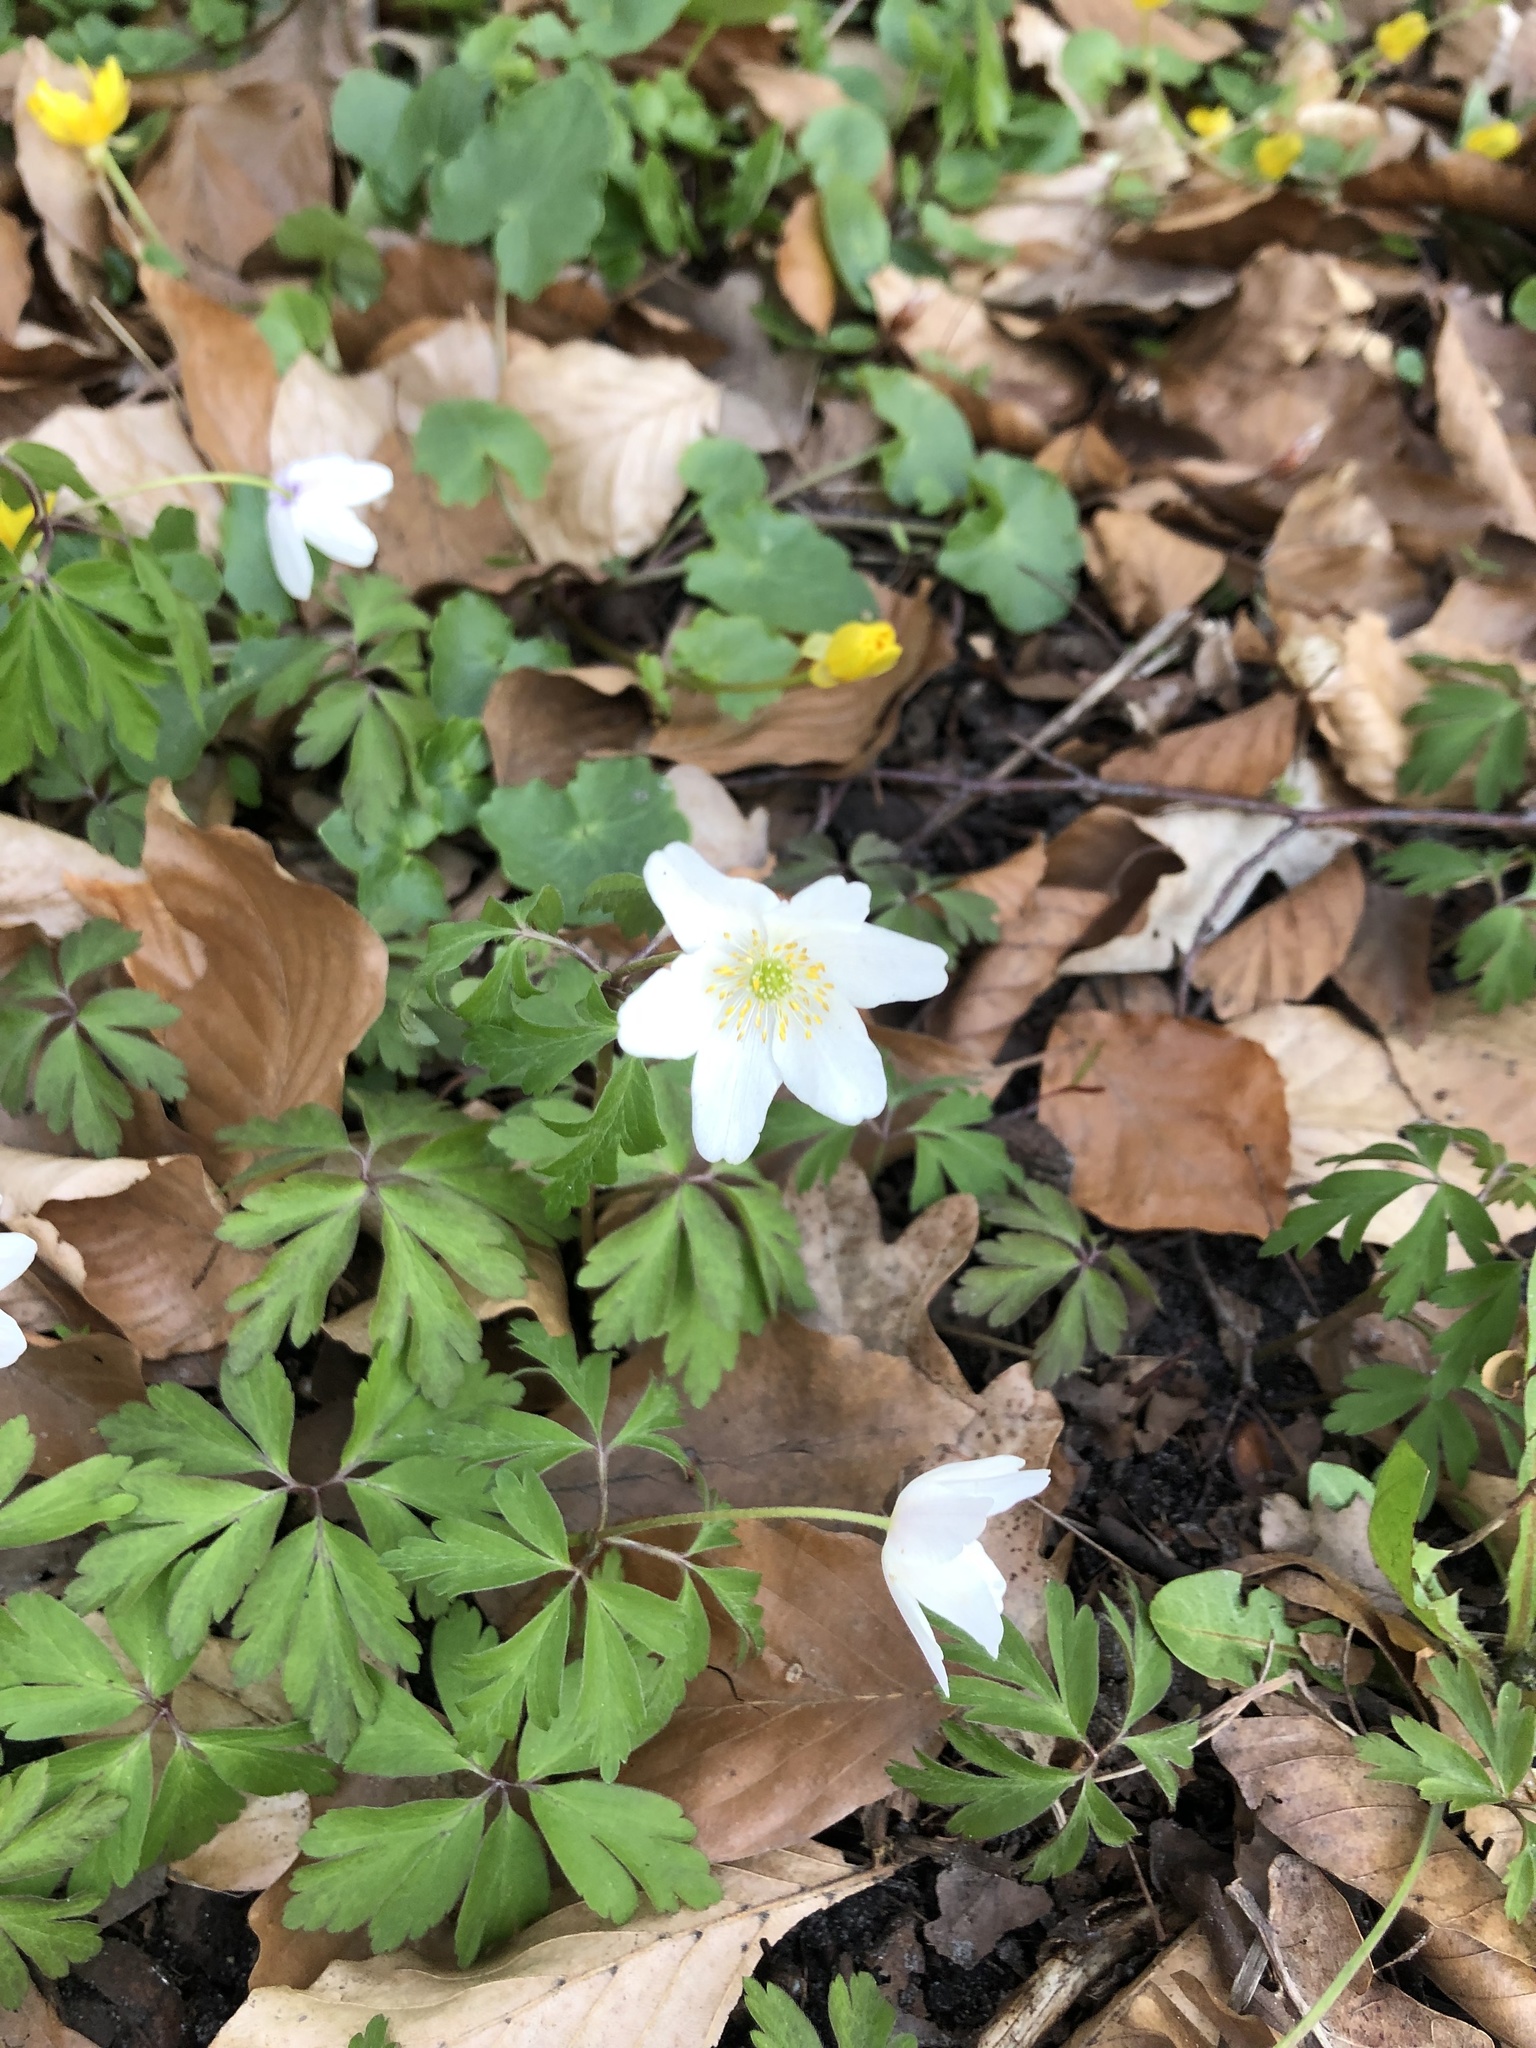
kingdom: Plantae
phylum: Tracheophyta
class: Magnoliopsida
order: Ranunculales
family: Ranunculaceae
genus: Anemone
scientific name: Anemone nemorosa
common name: Wood anemone
